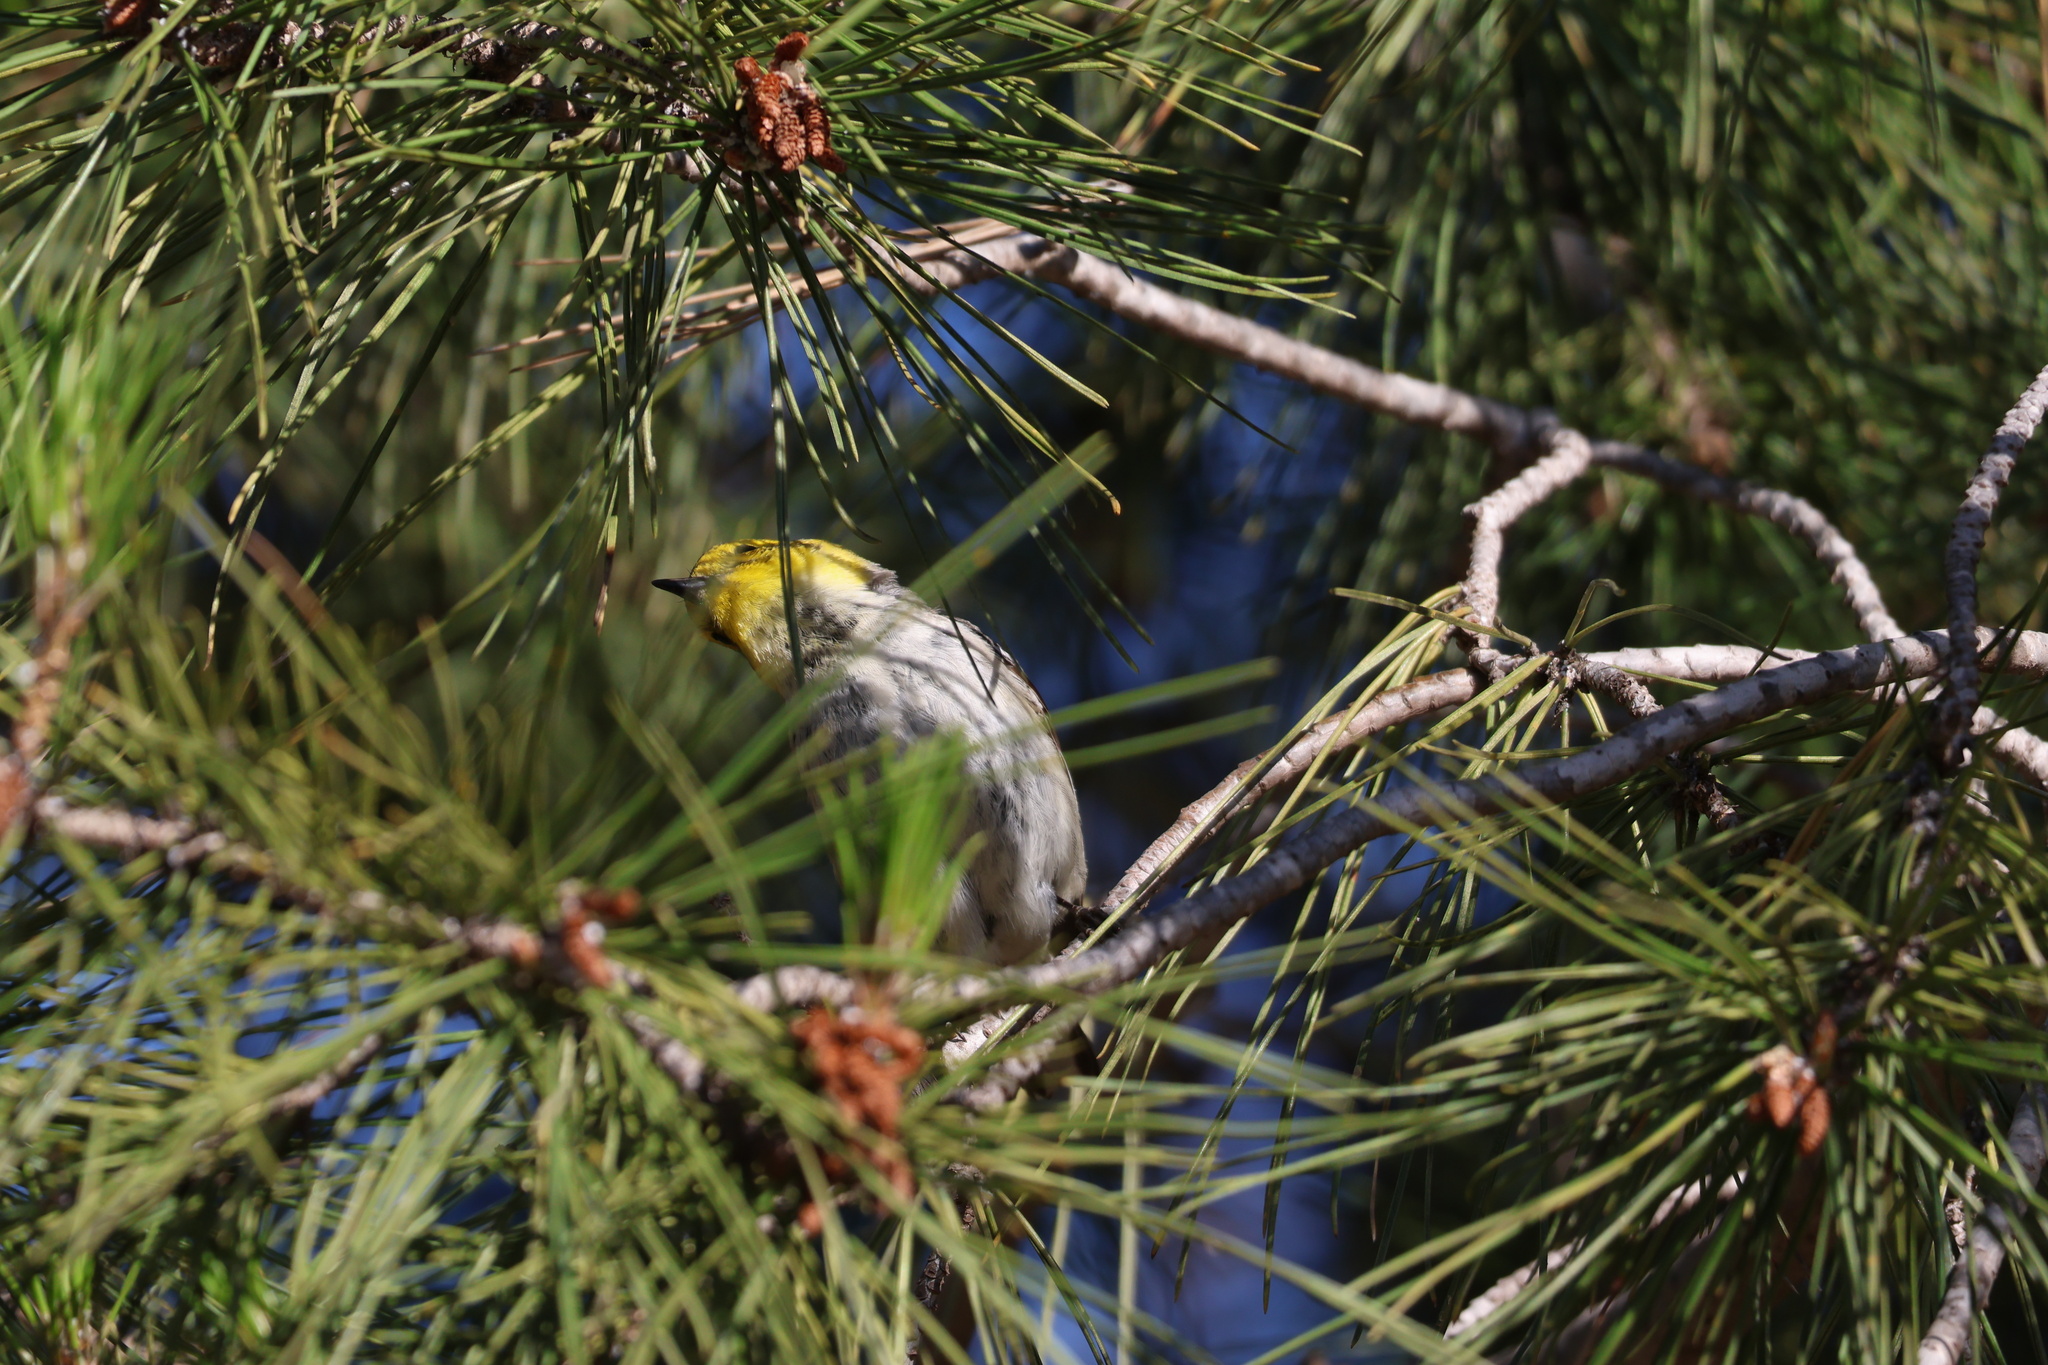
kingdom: Animalia
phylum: Chordata
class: Aves
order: Passeriformes
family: Parulidae
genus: Setophaga
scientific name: Setophaga occidentalis
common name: Hermit warbler
